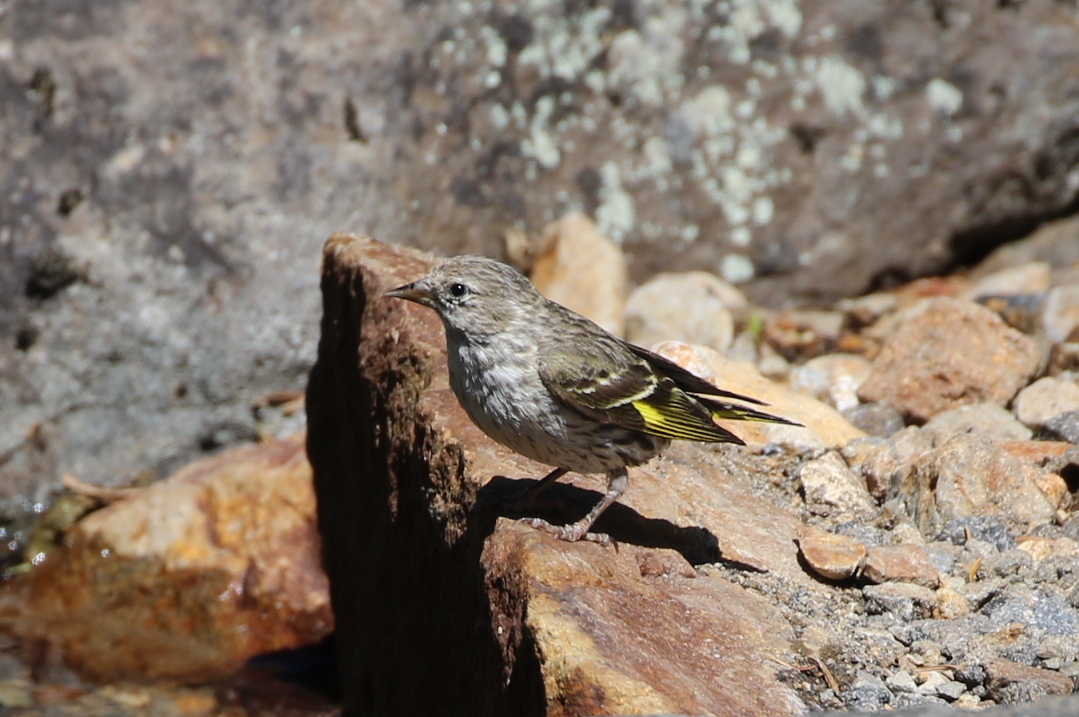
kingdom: Animalia
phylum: Chordata
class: Aves
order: Passeriformes
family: Fringillidae
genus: Spinus
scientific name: Spinus pinus
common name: Pine siskin
